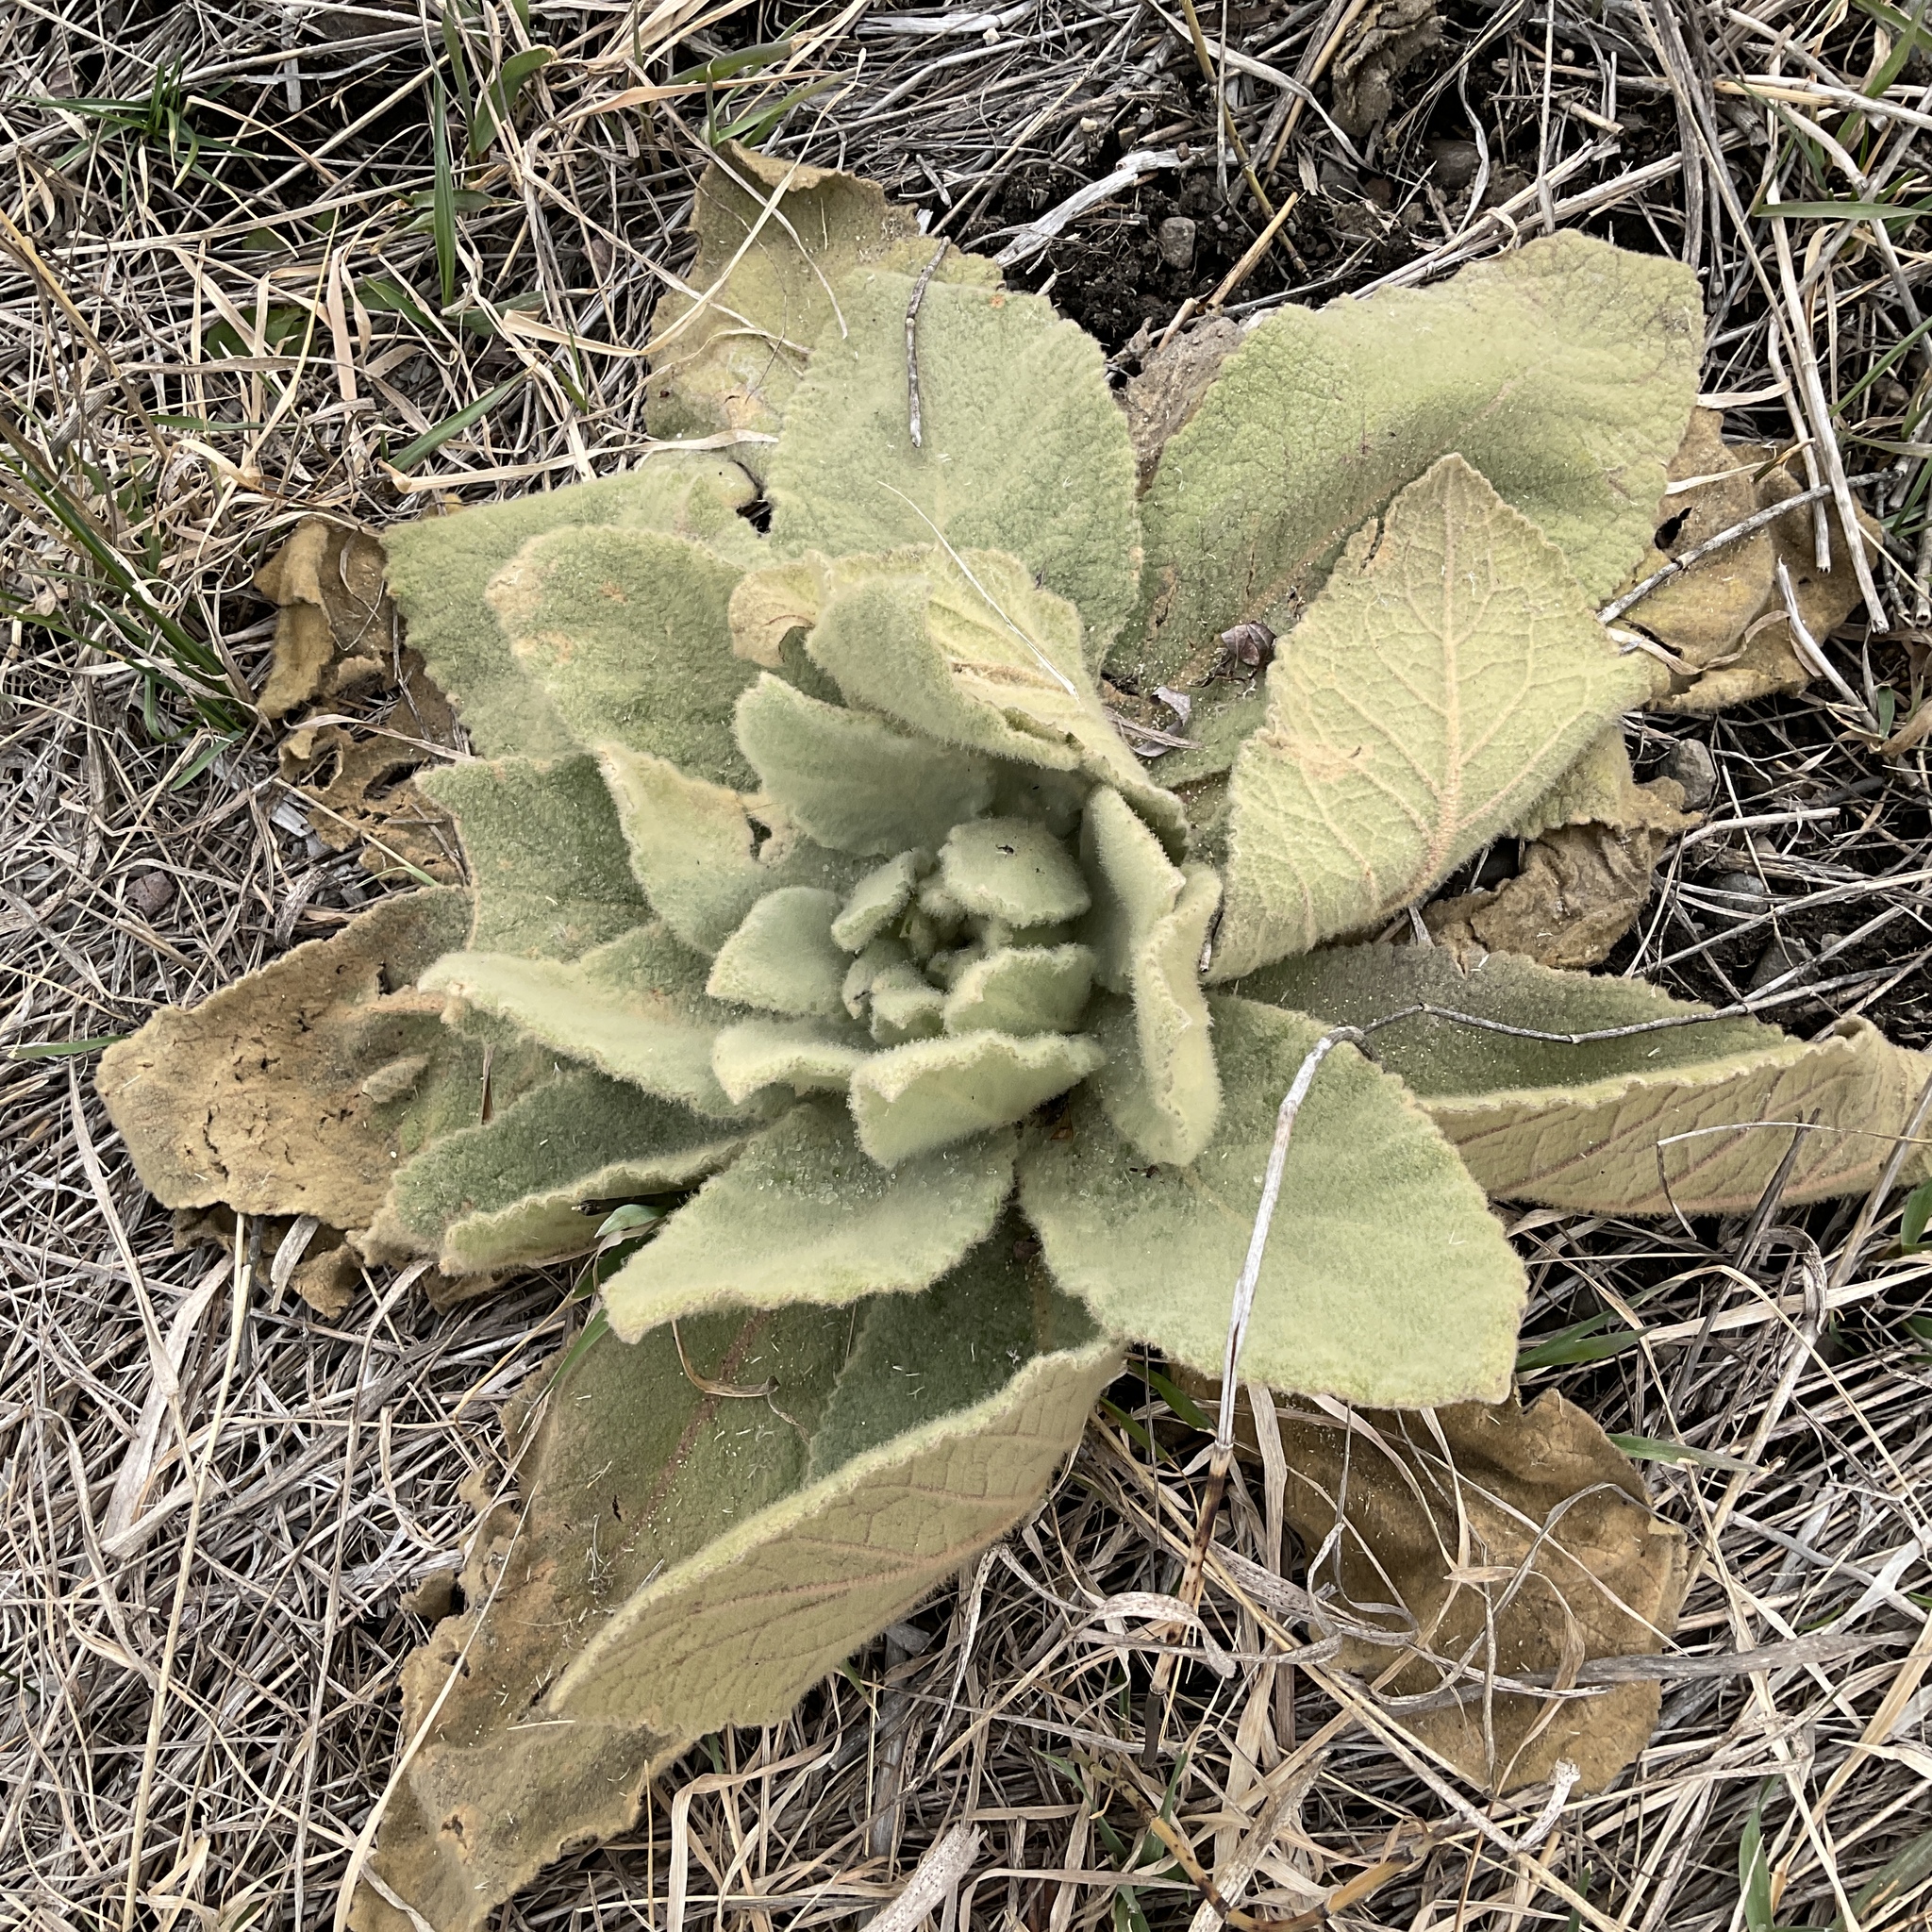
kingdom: Plantae
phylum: Tracheophyta
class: Magnoliopsida
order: Lamiales
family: Scrophulariaceae
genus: Verbascum
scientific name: Verbascum thapsus
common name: Common mullein
